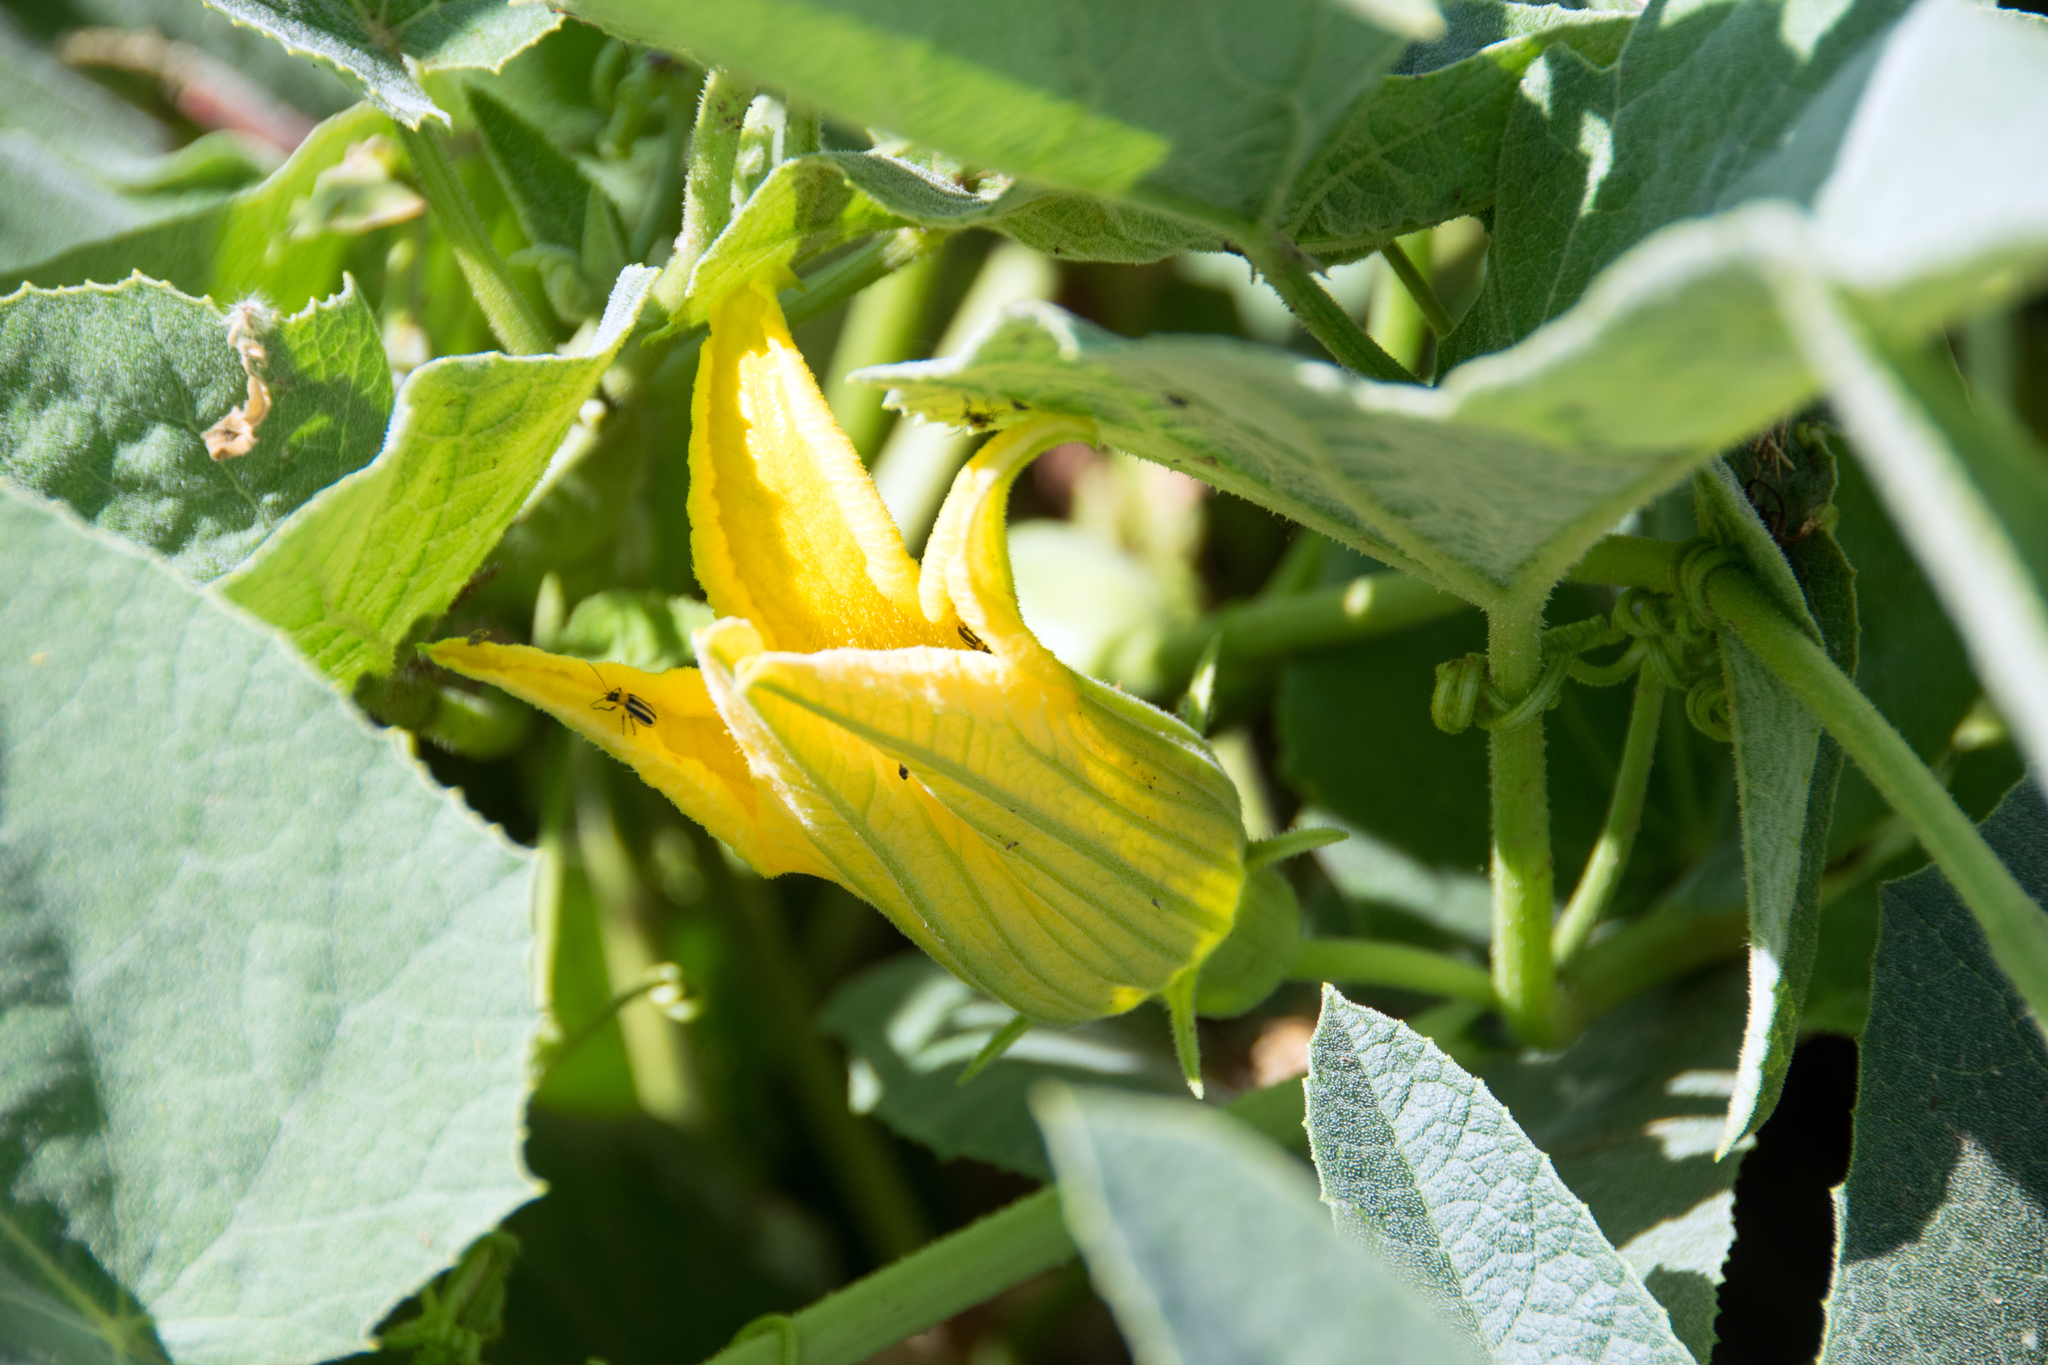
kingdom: Plantae
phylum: Tracheophyta
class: Magnoliopsida
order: Cucurbitales
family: Cucurbitaceae
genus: Cucurbita
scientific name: Cucurbita foetidissima
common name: Buffalo gourd
